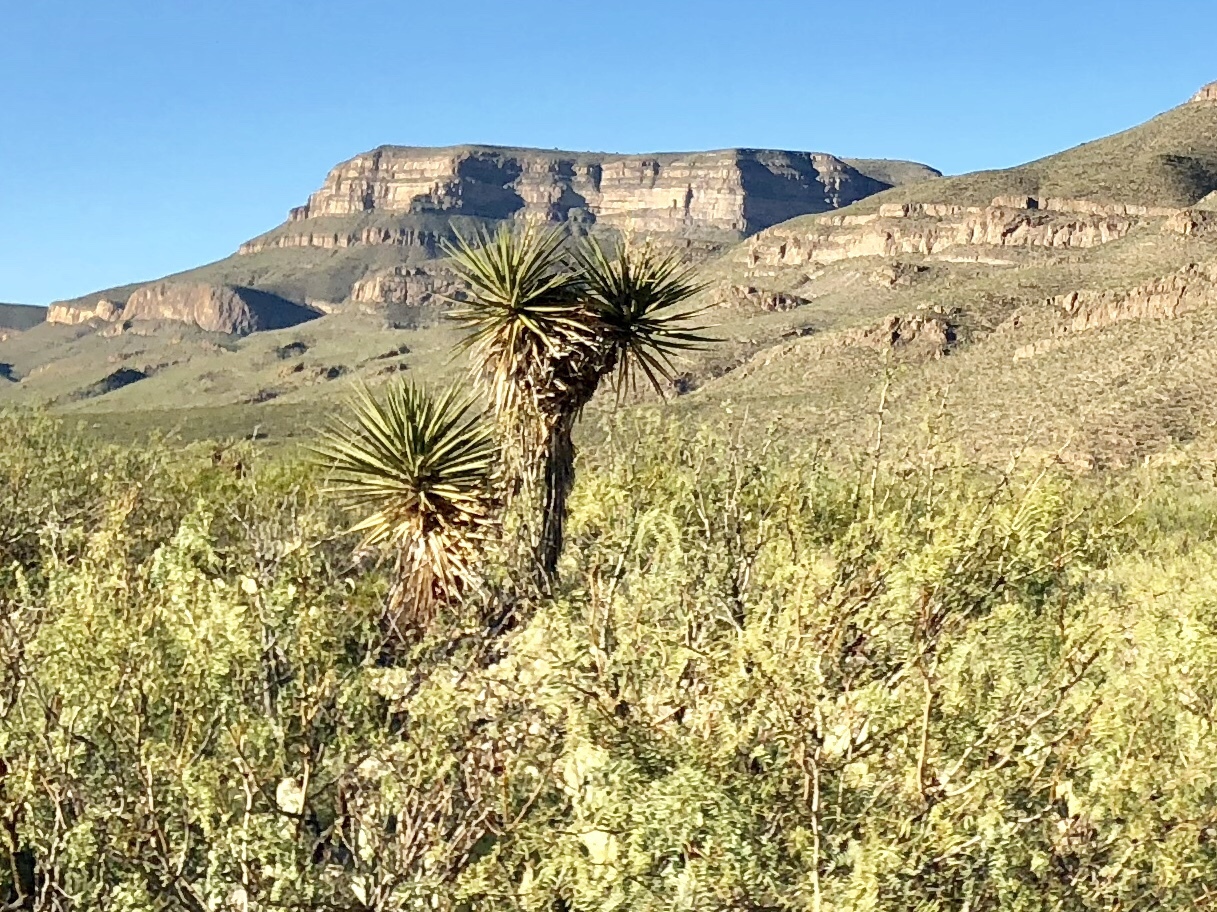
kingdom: Plantae
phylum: Tracheophyta
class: Liliopsida
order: Asparagales
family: Asparagaceae
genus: Yucca
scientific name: Yucca treculiana
